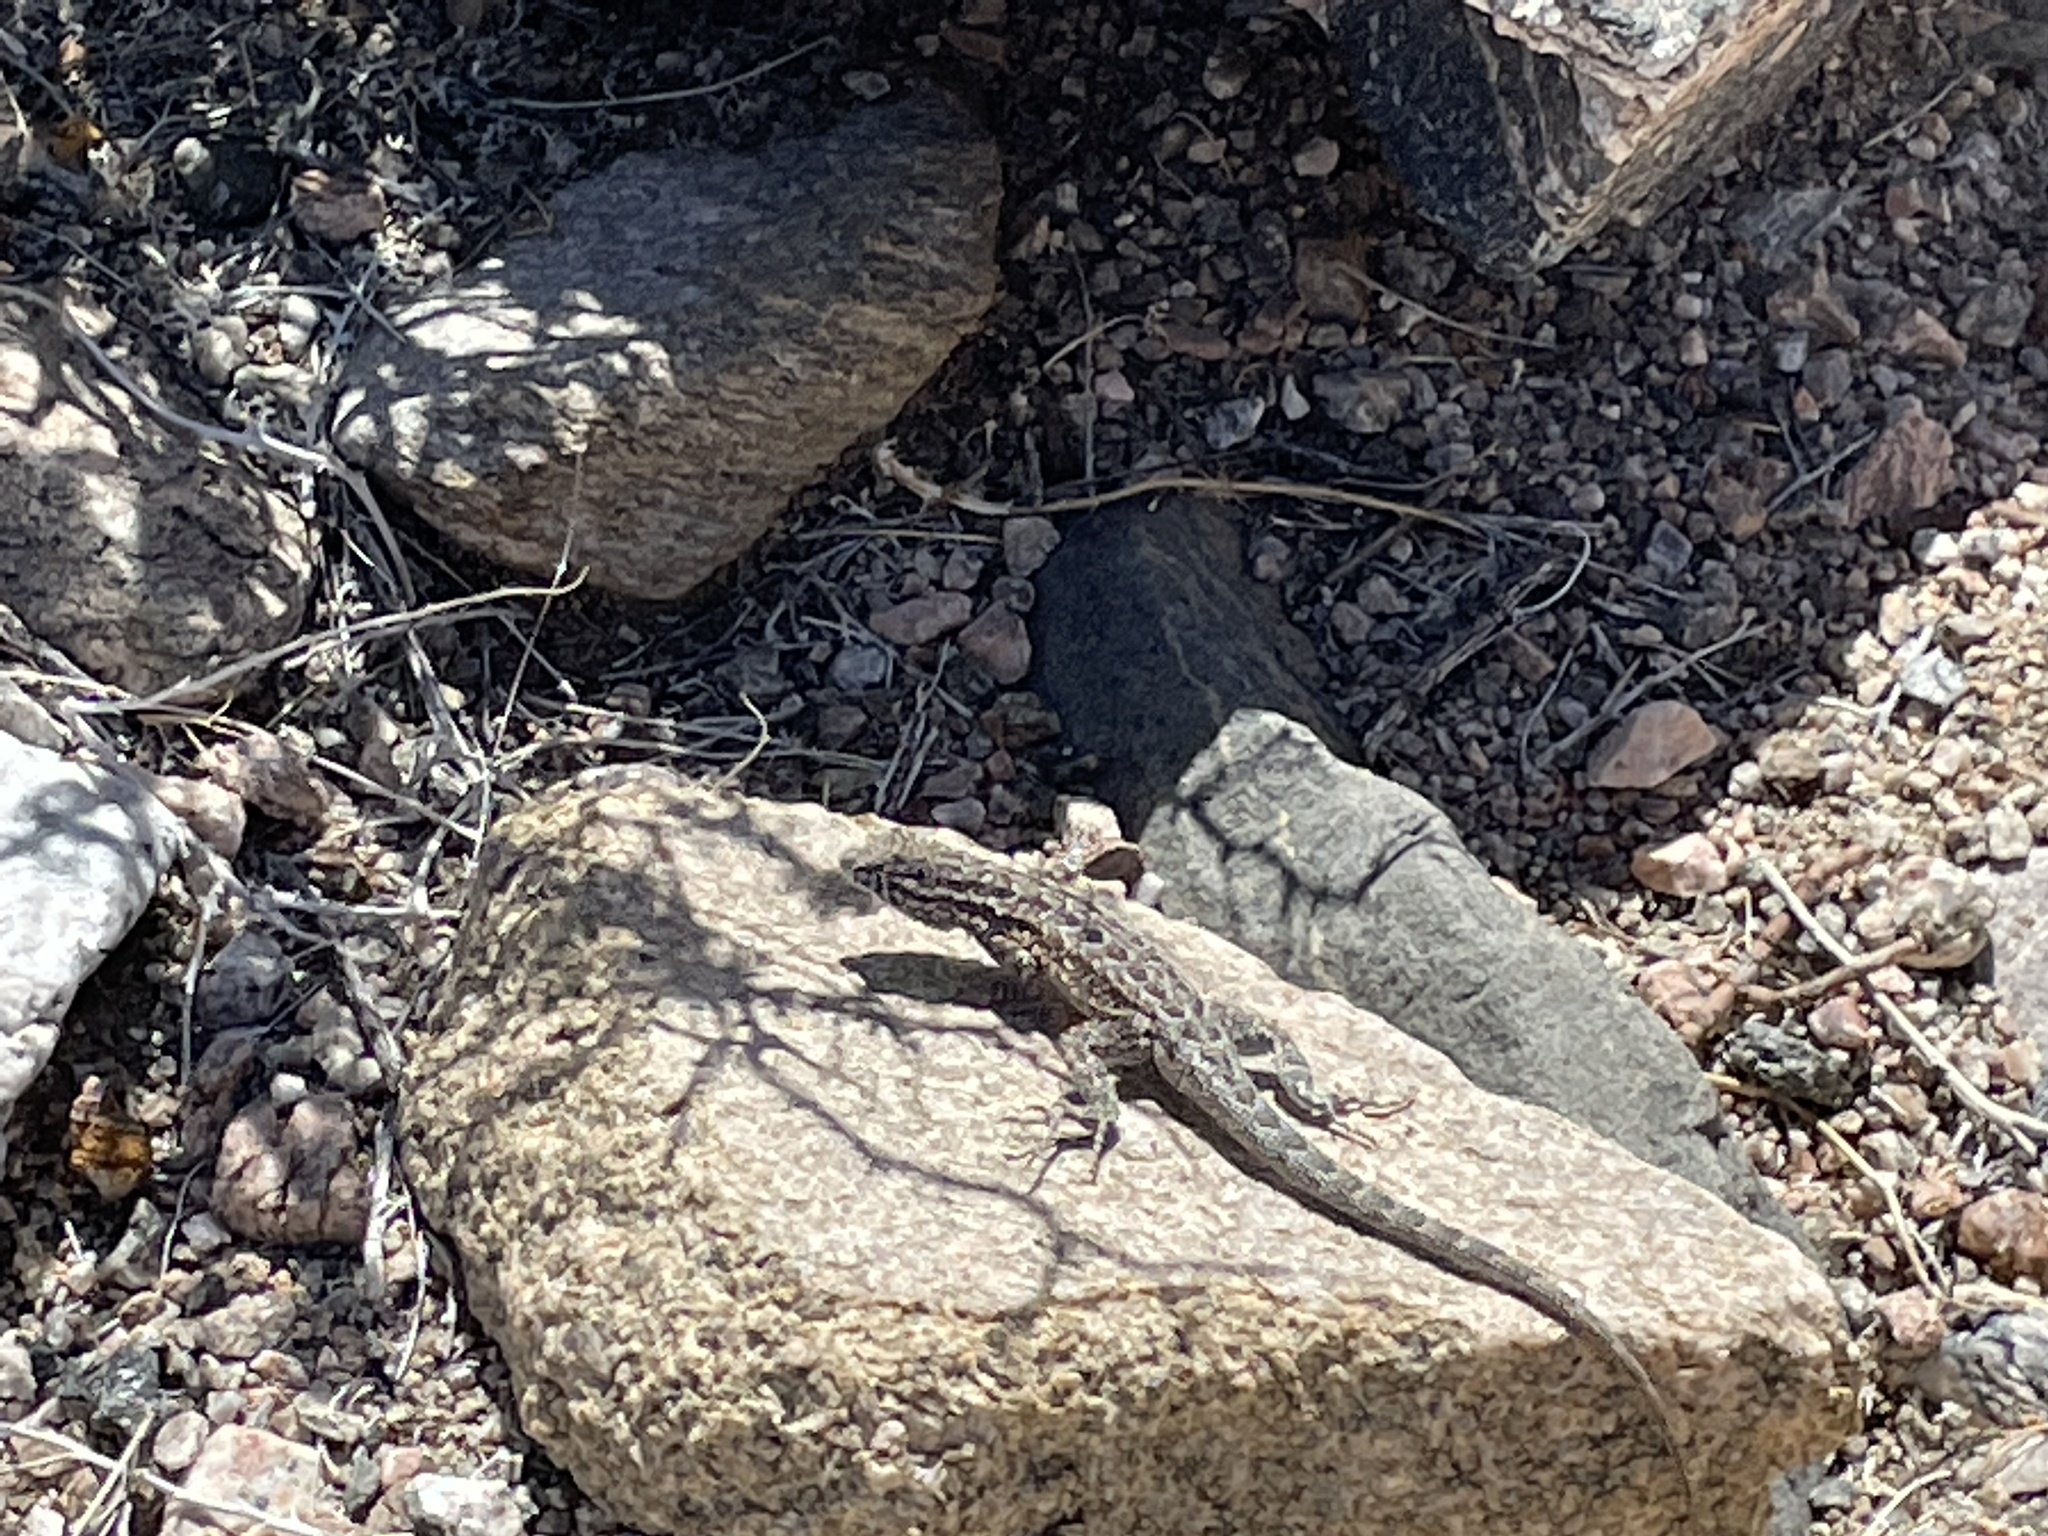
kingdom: Animalia
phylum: Chordata
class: Squamata
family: Phrynosomatidae
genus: Uta
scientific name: Uta stansburiana
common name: Side-blotched lizard
